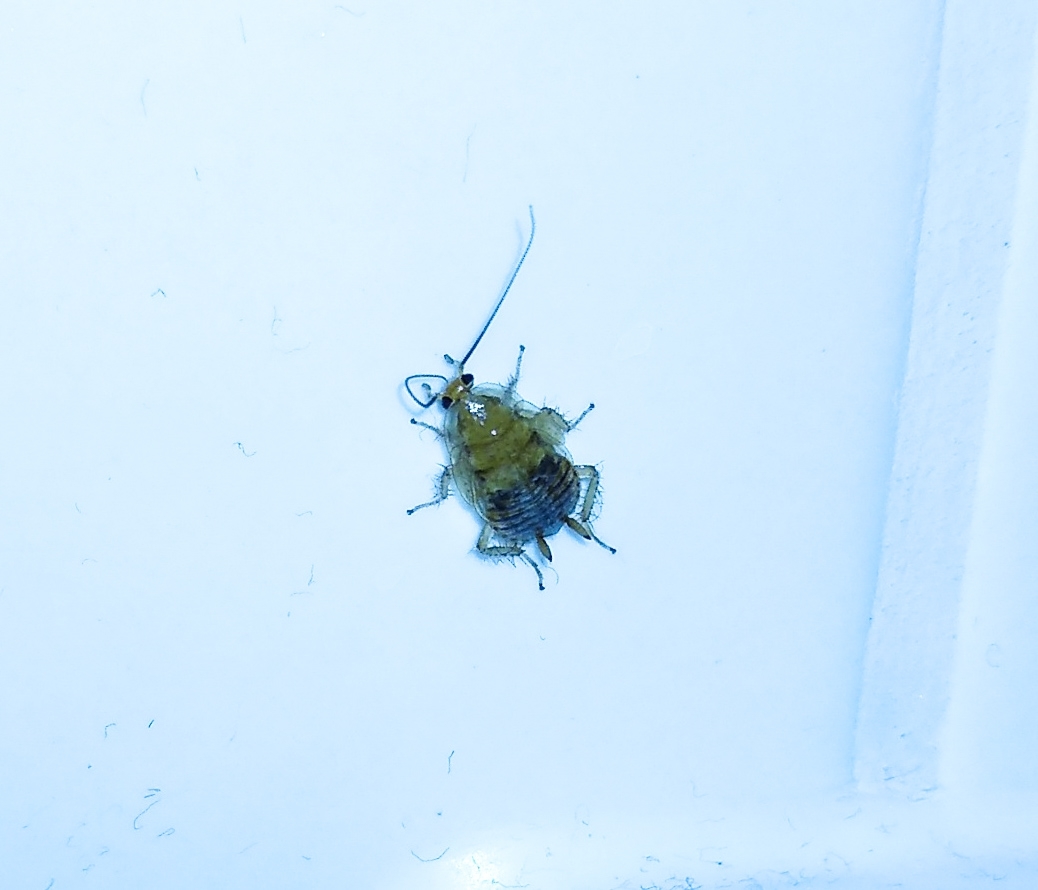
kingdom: Animalia
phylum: Arthropoda
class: Insecta
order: Blattodea
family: Ectobiidae
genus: Ectobius
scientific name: Ectobius vittiventris
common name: Garden cockroach
